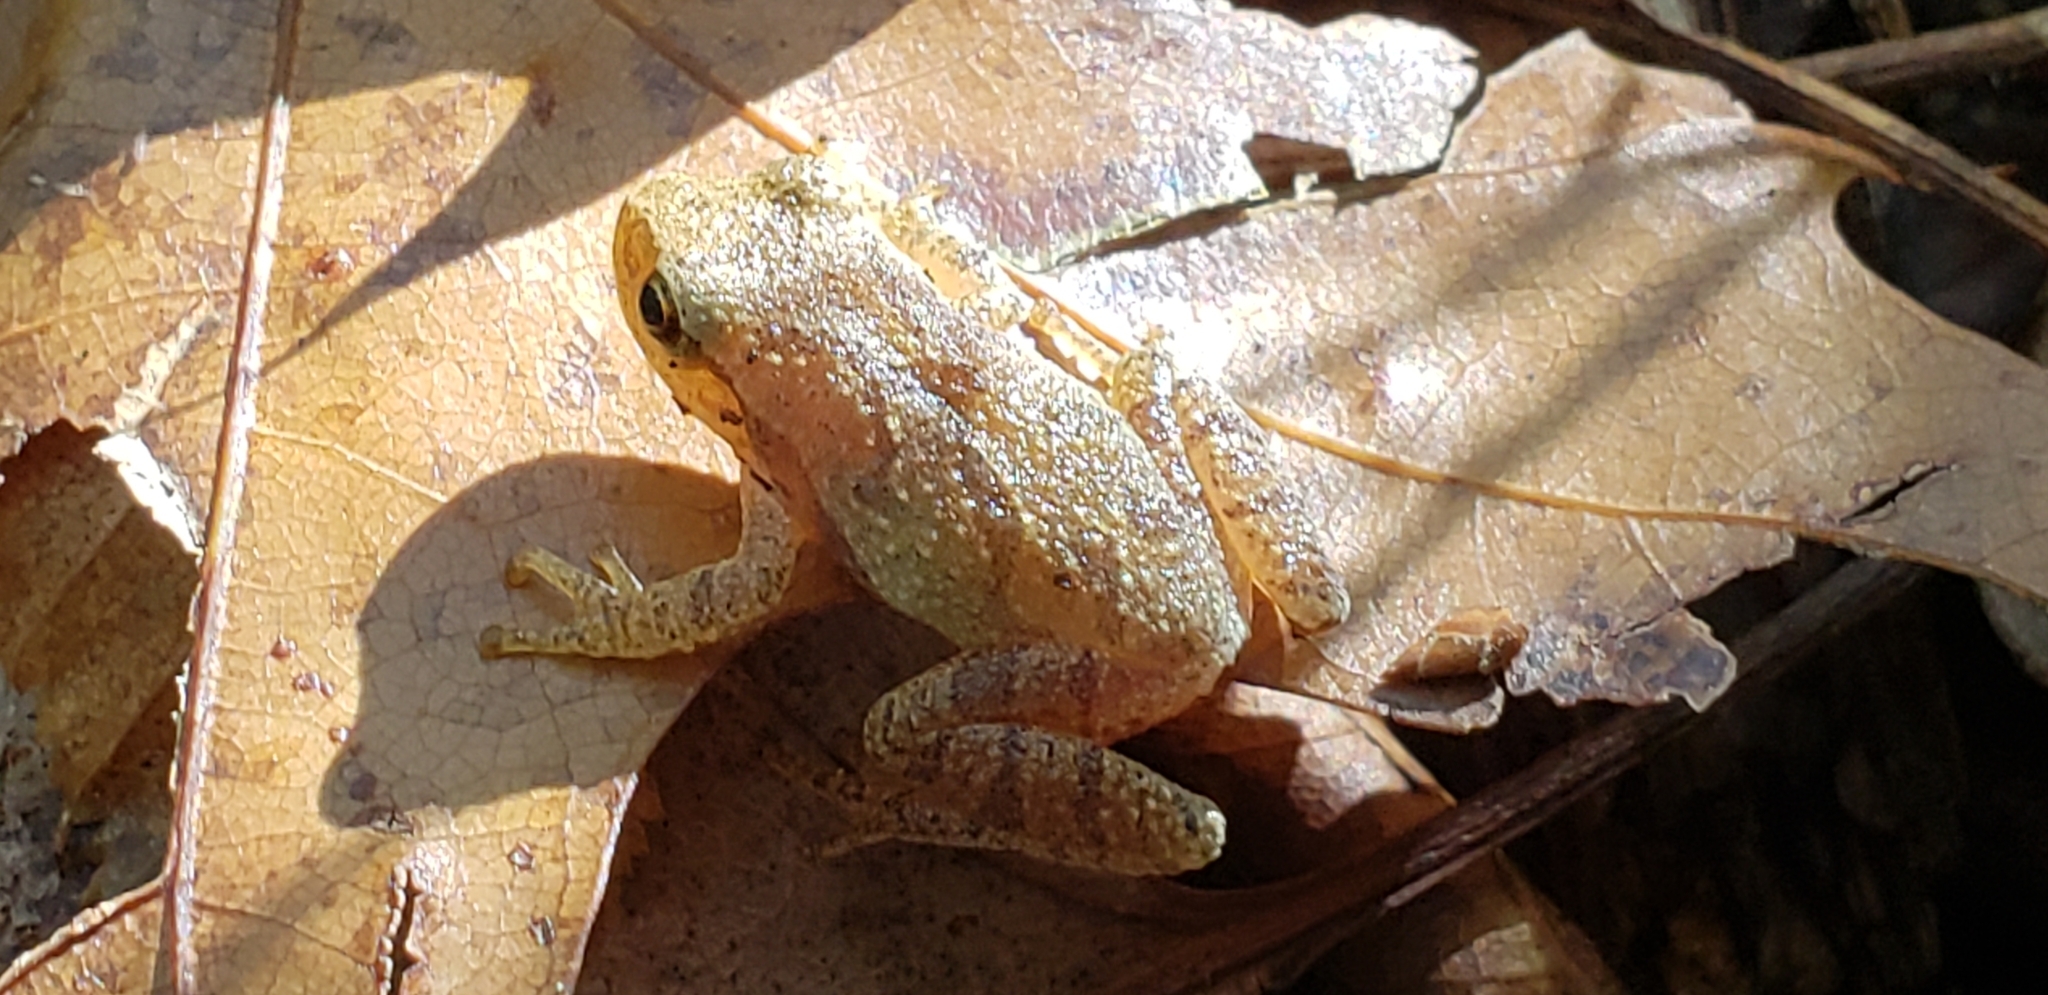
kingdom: Animalia
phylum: Chordata
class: Amphibia
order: Anura
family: Hylidae
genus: Pseudacris
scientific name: Pseudacris crucifer
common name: Spring peeper
